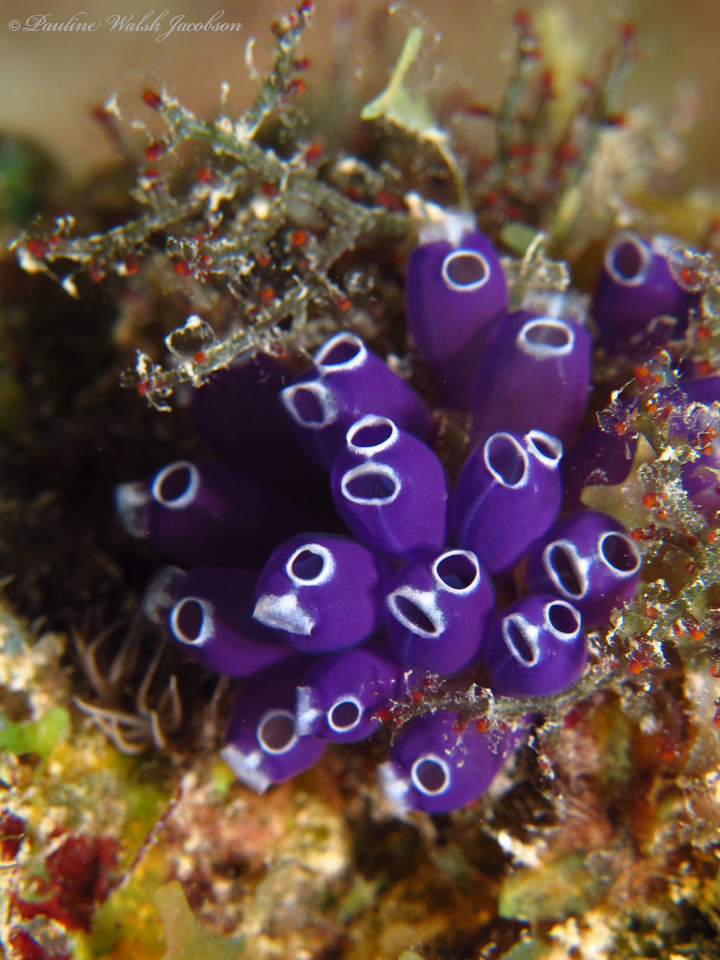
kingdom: Animalia
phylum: Chordata
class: Ascidiacea
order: Aplousobranchia
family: Clavelinidae
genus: Clavelina
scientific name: Clavelina puertosecensis
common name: Blue bell tunicate
